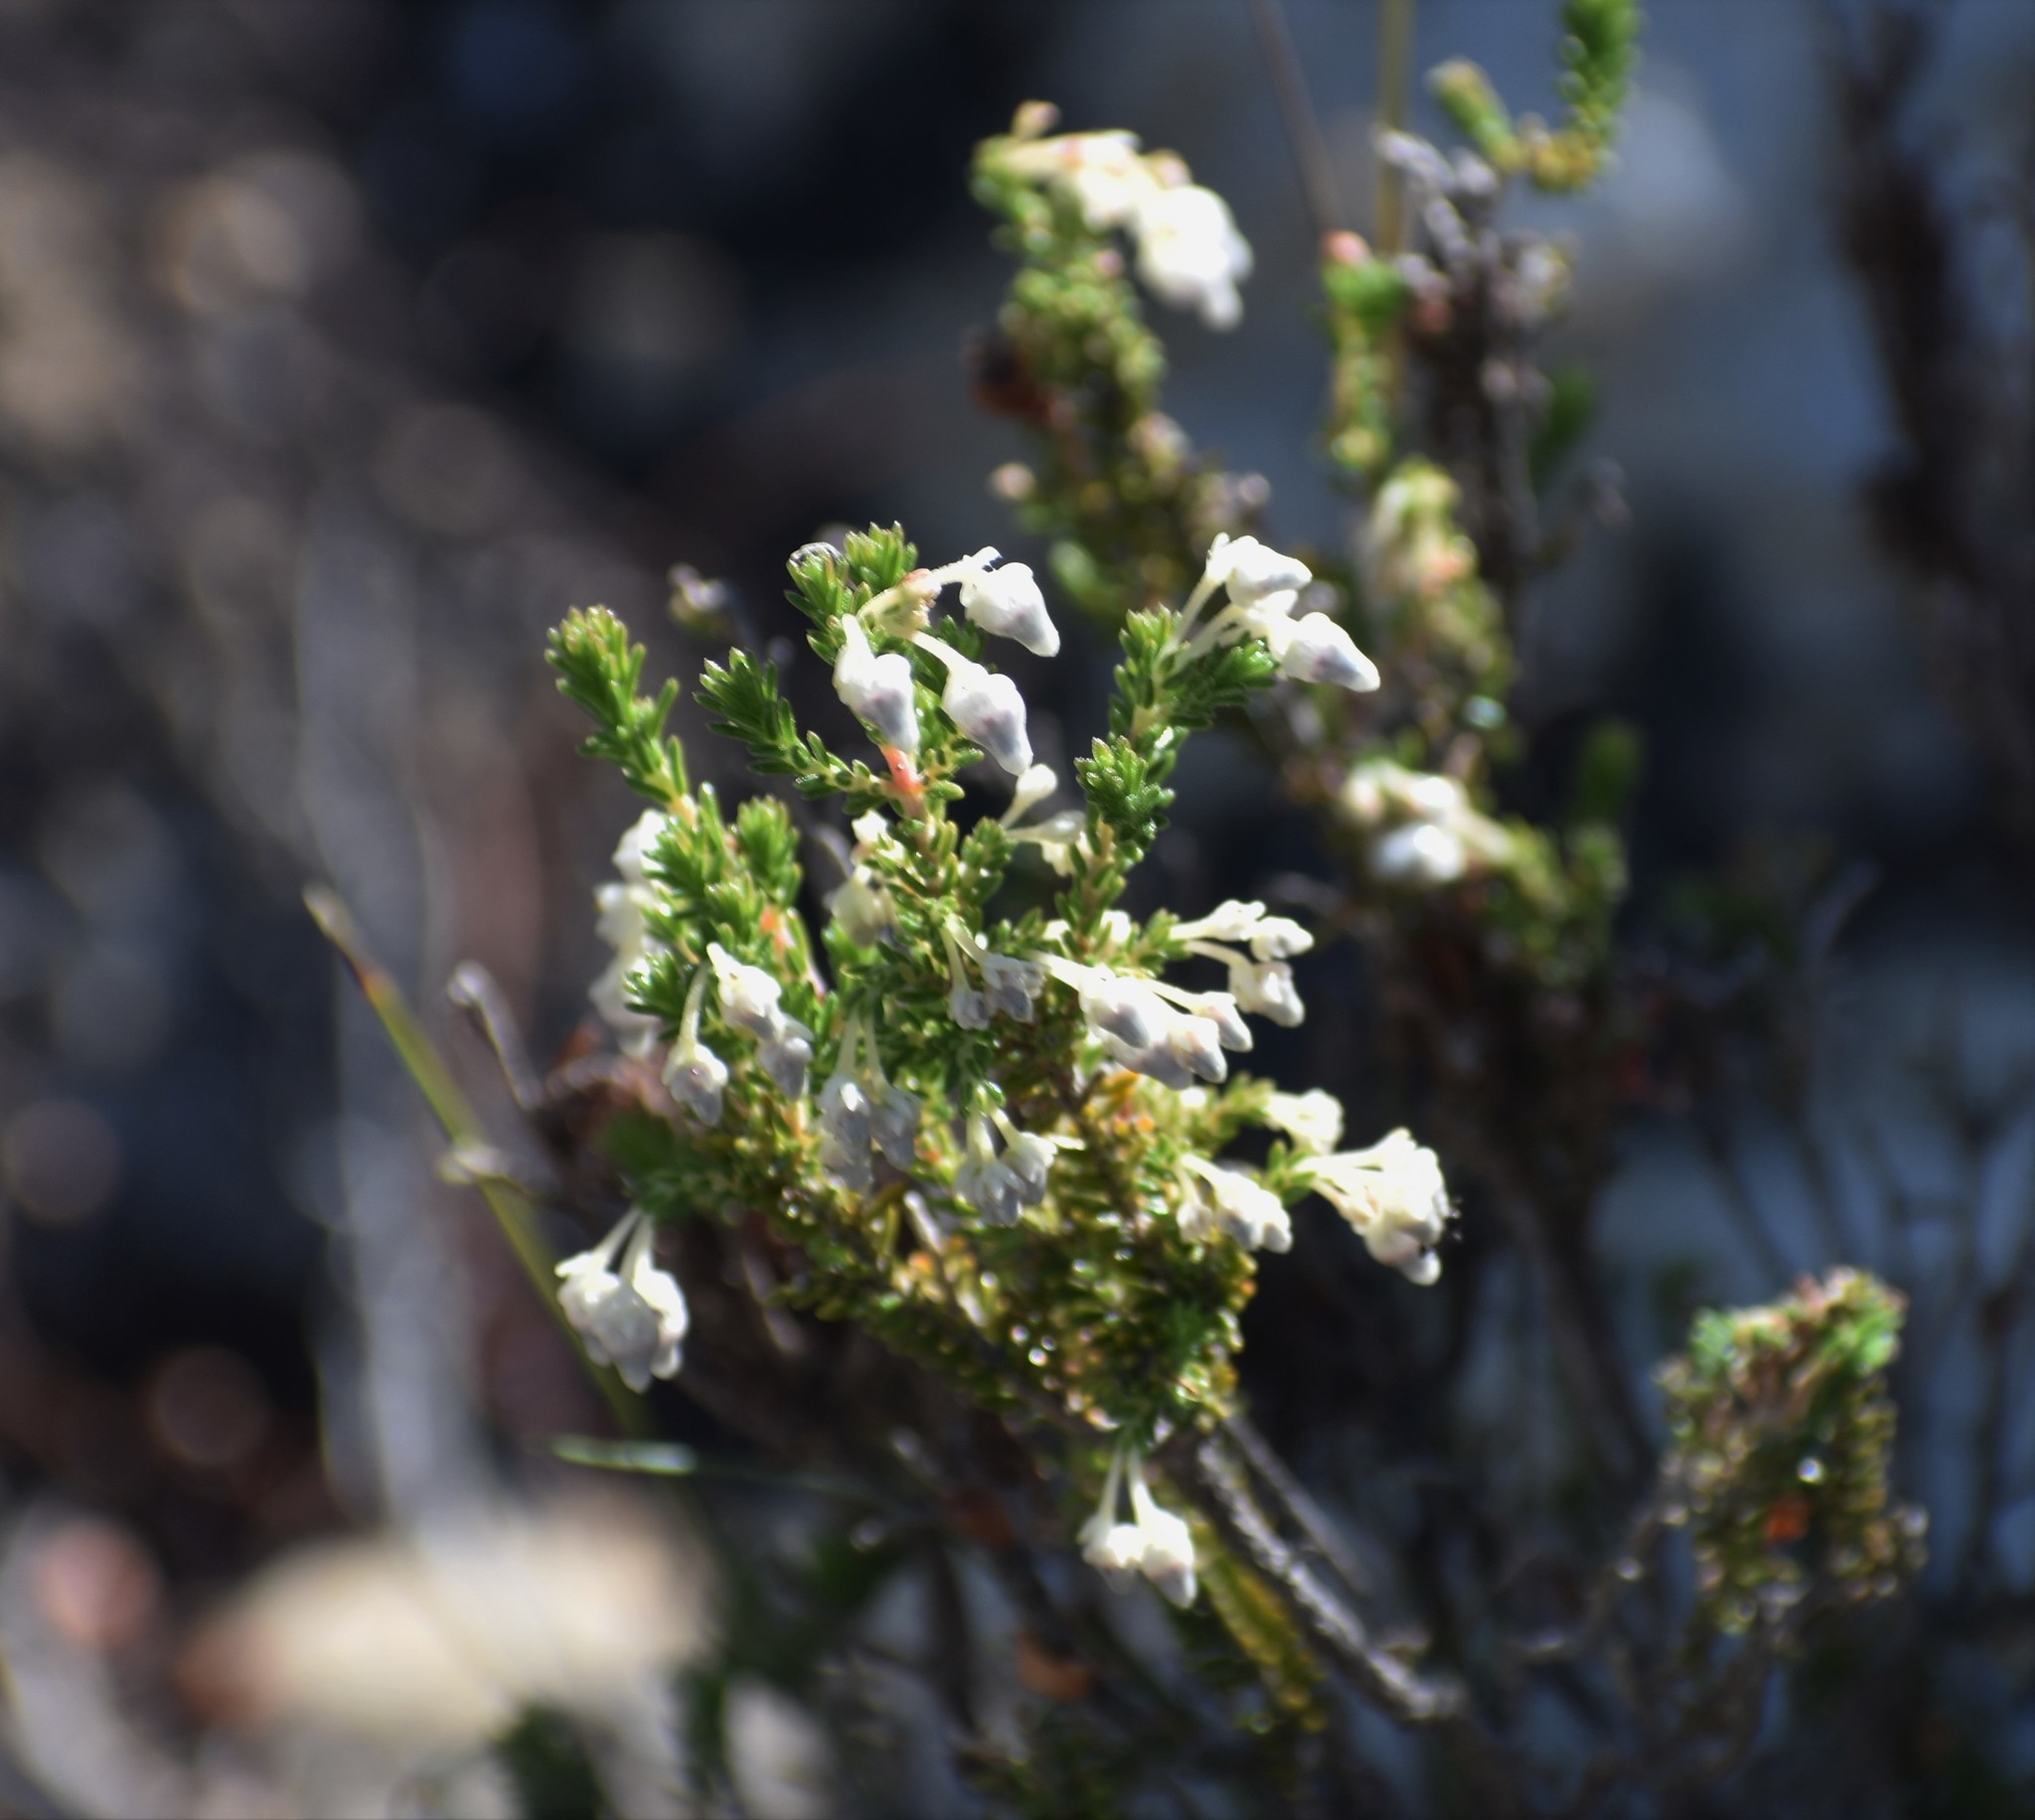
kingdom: Plantae
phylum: Tracheophyta
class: Magnoliopsida
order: Ericales
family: Ericaceae
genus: Erica
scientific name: Erica glomiflora
